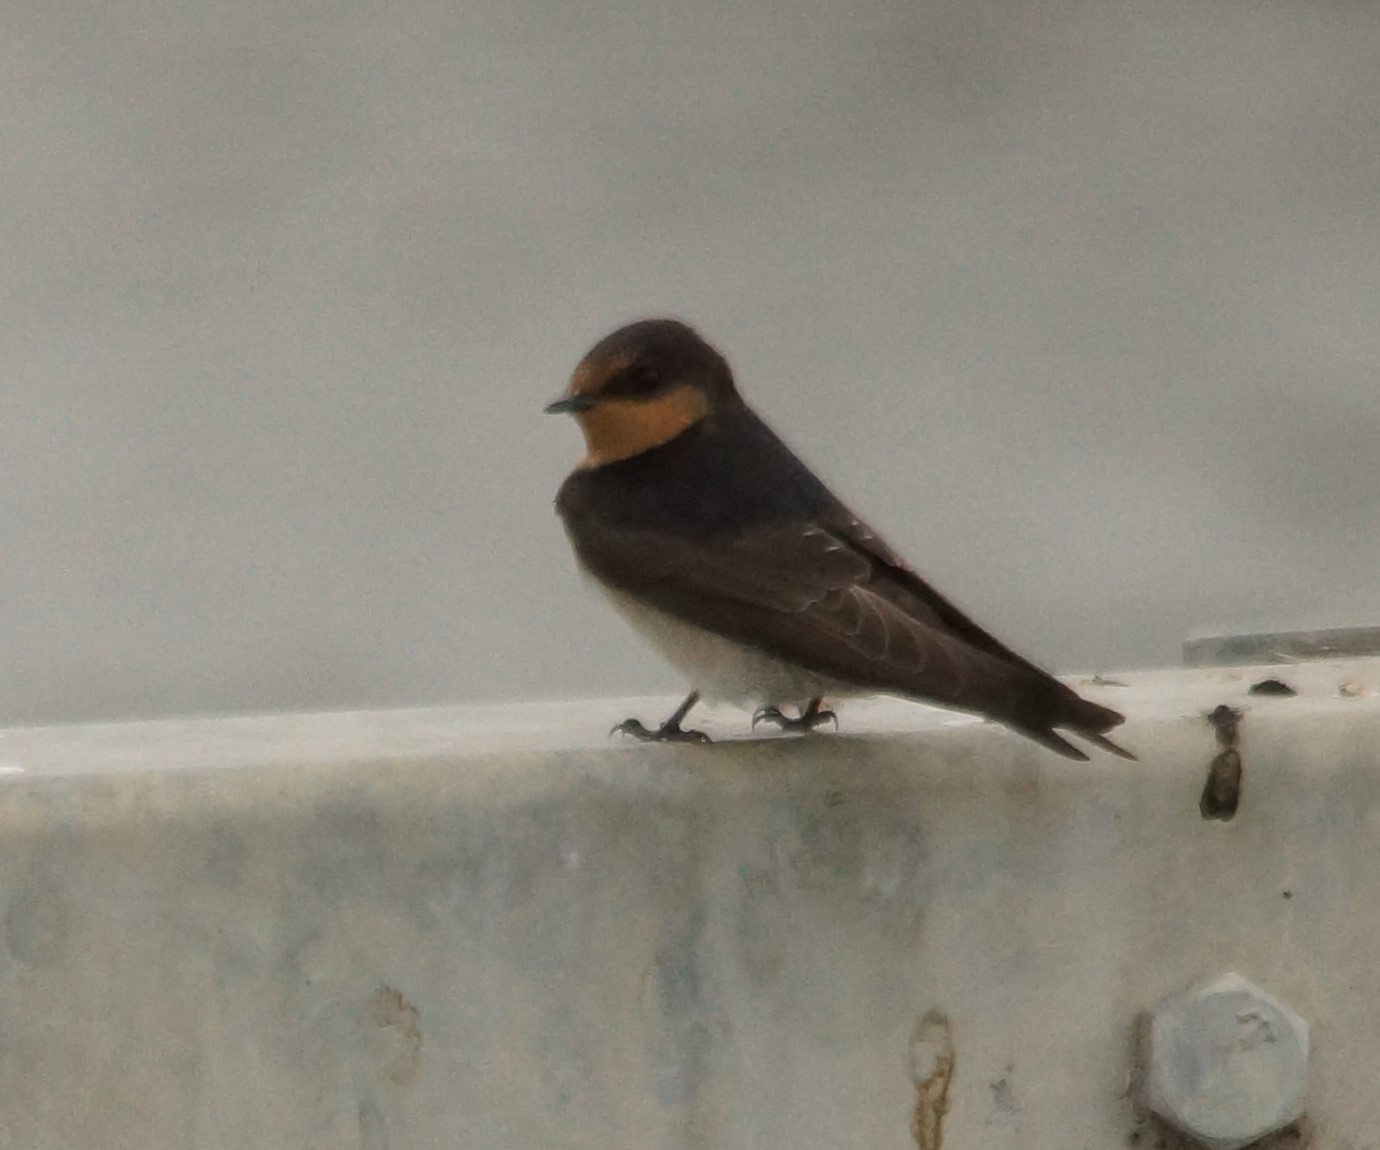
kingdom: Animalia
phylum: Chordata
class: Aves
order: Passeriformes
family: Hirundinidae
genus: Hirundo
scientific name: Hirundo neoxena
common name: Welcome swallow
